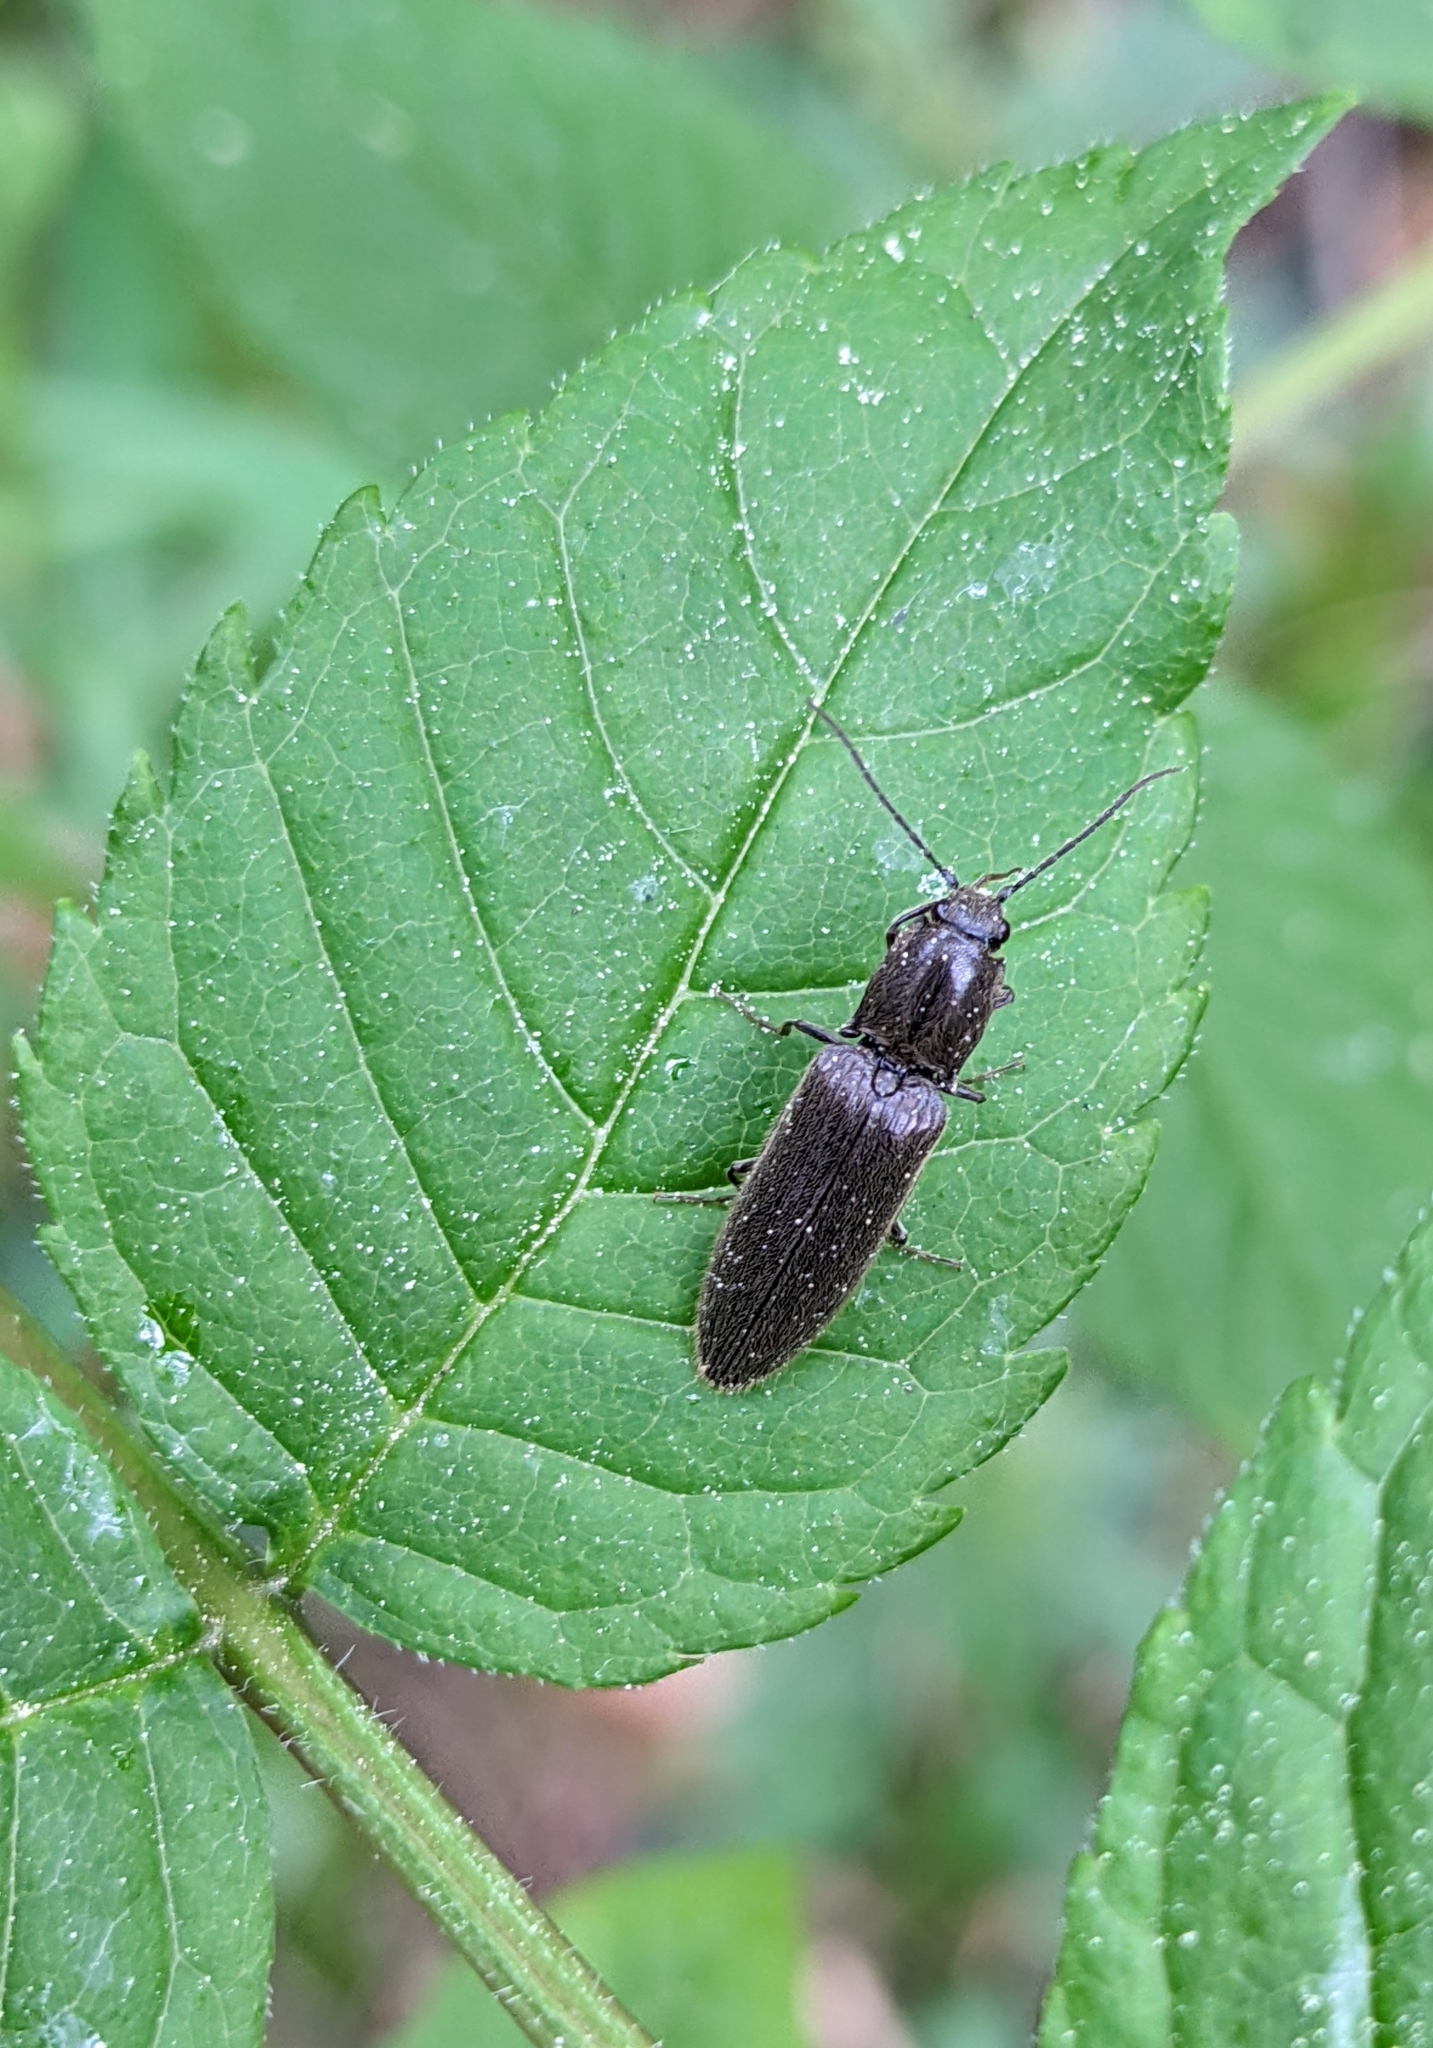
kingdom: Animalia
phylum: Arthropoda
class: Insecta
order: Coleoptera
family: Elateridae
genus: Athous
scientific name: Athous haemorrhoidalis
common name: Red-brown click beetle
